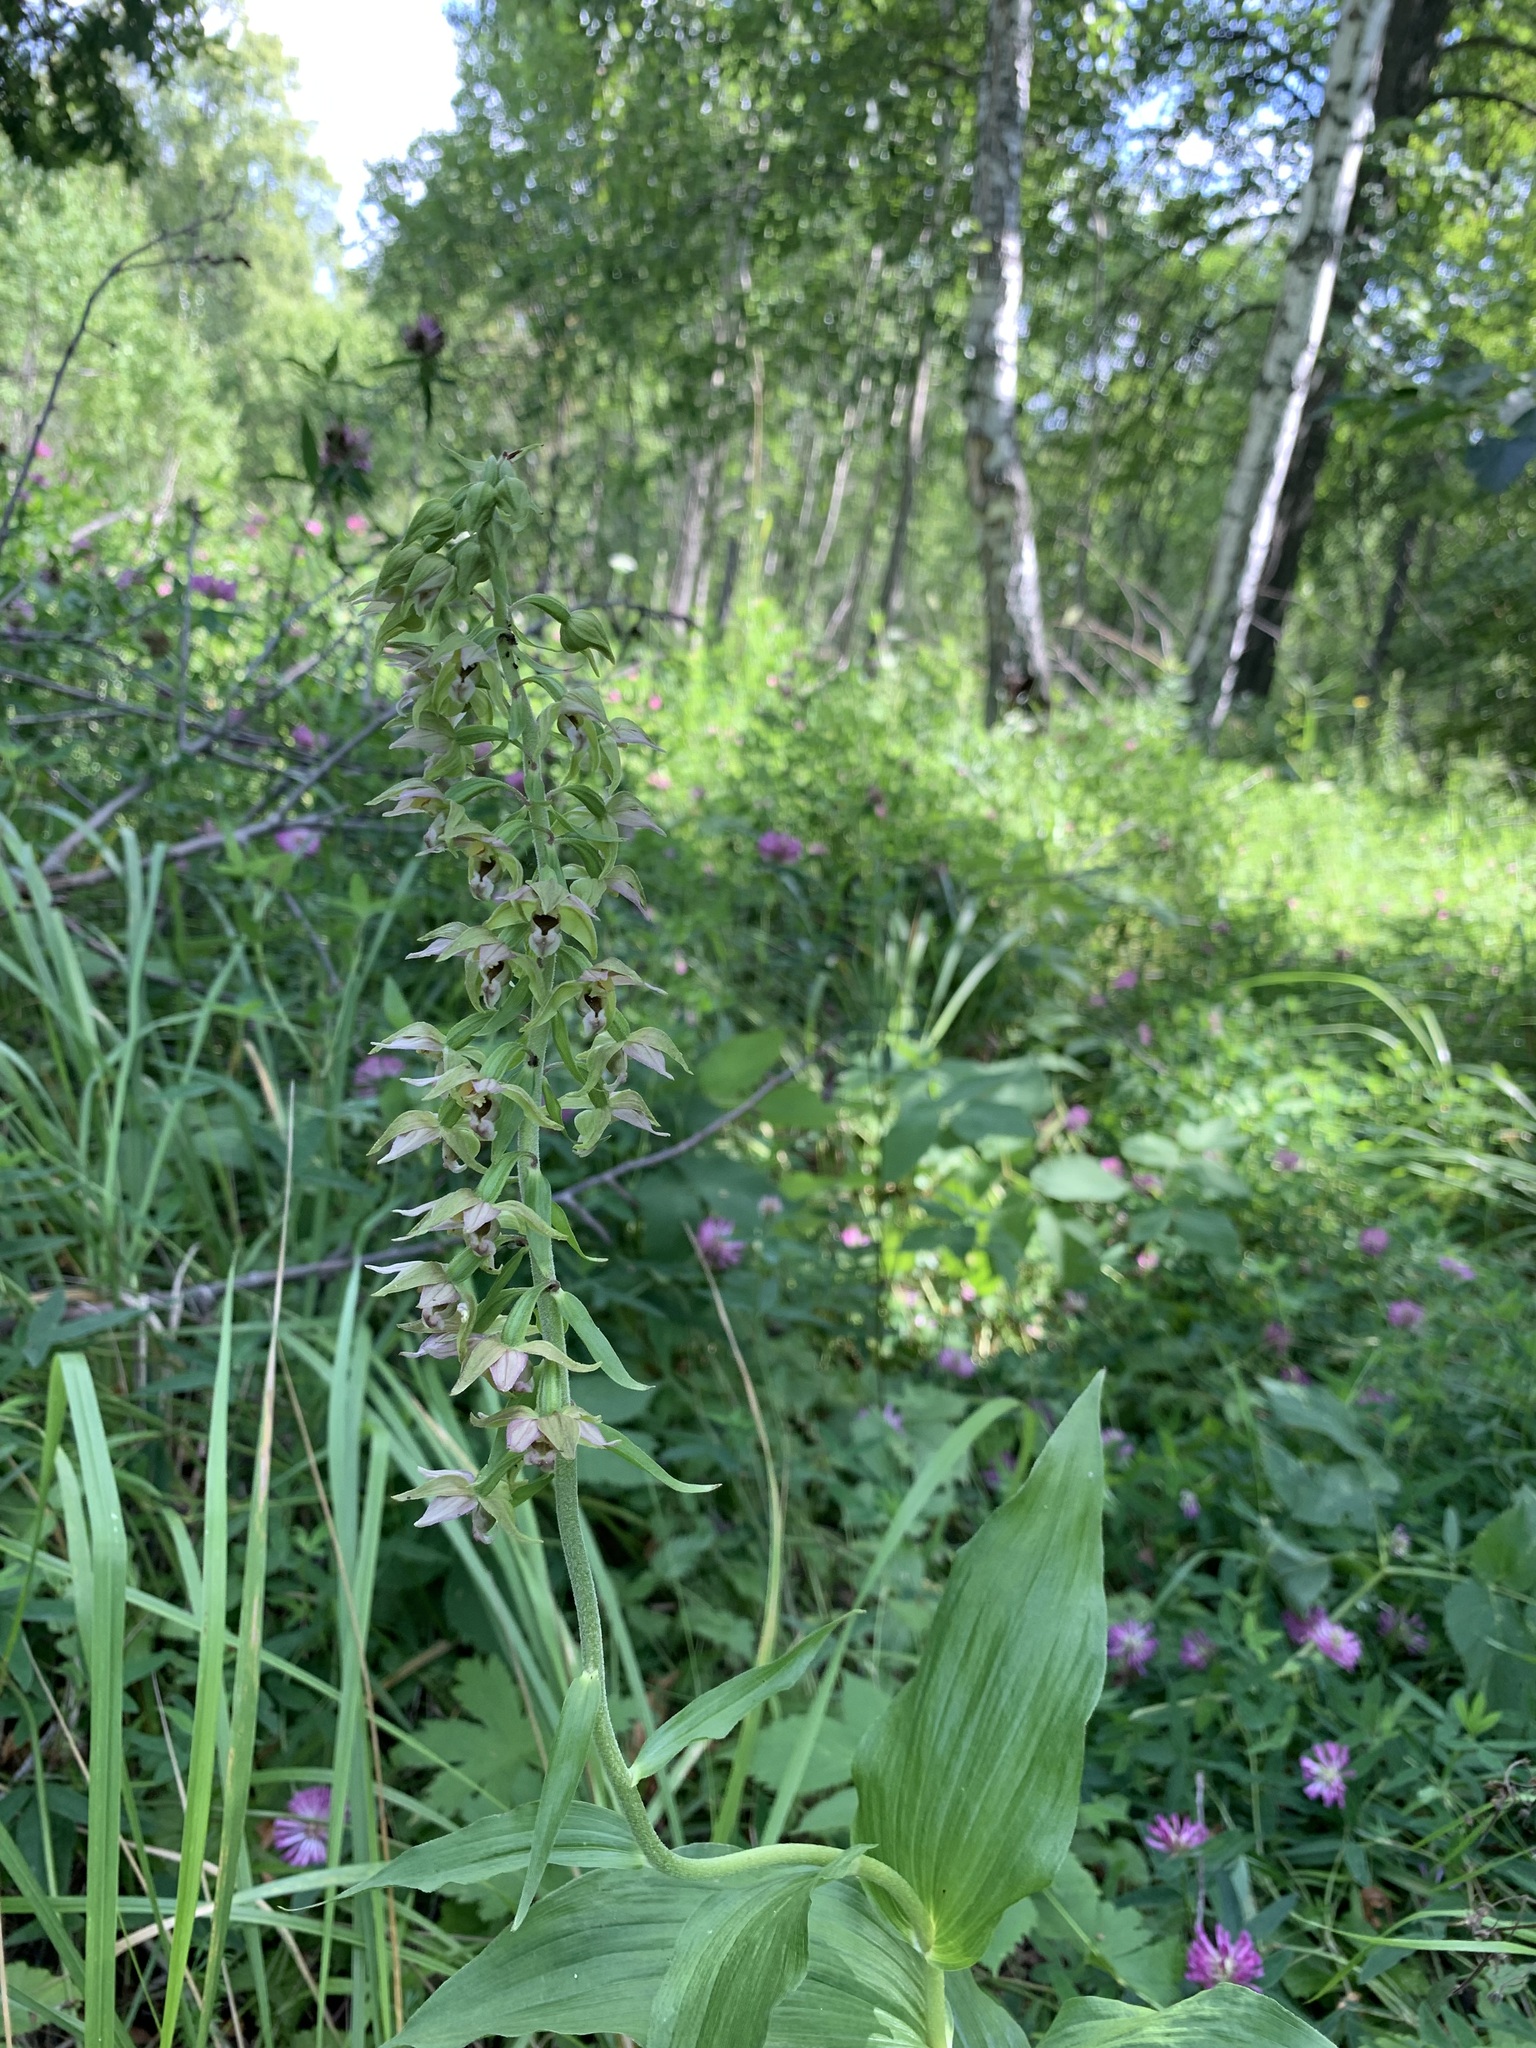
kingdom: Plantae
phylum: Tracheophyta
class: Liliopsida
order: Asparagales
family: Orchidaceae
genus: Epipactis
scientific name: Epipactis helleborine
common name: Broad-leaved helleborine
